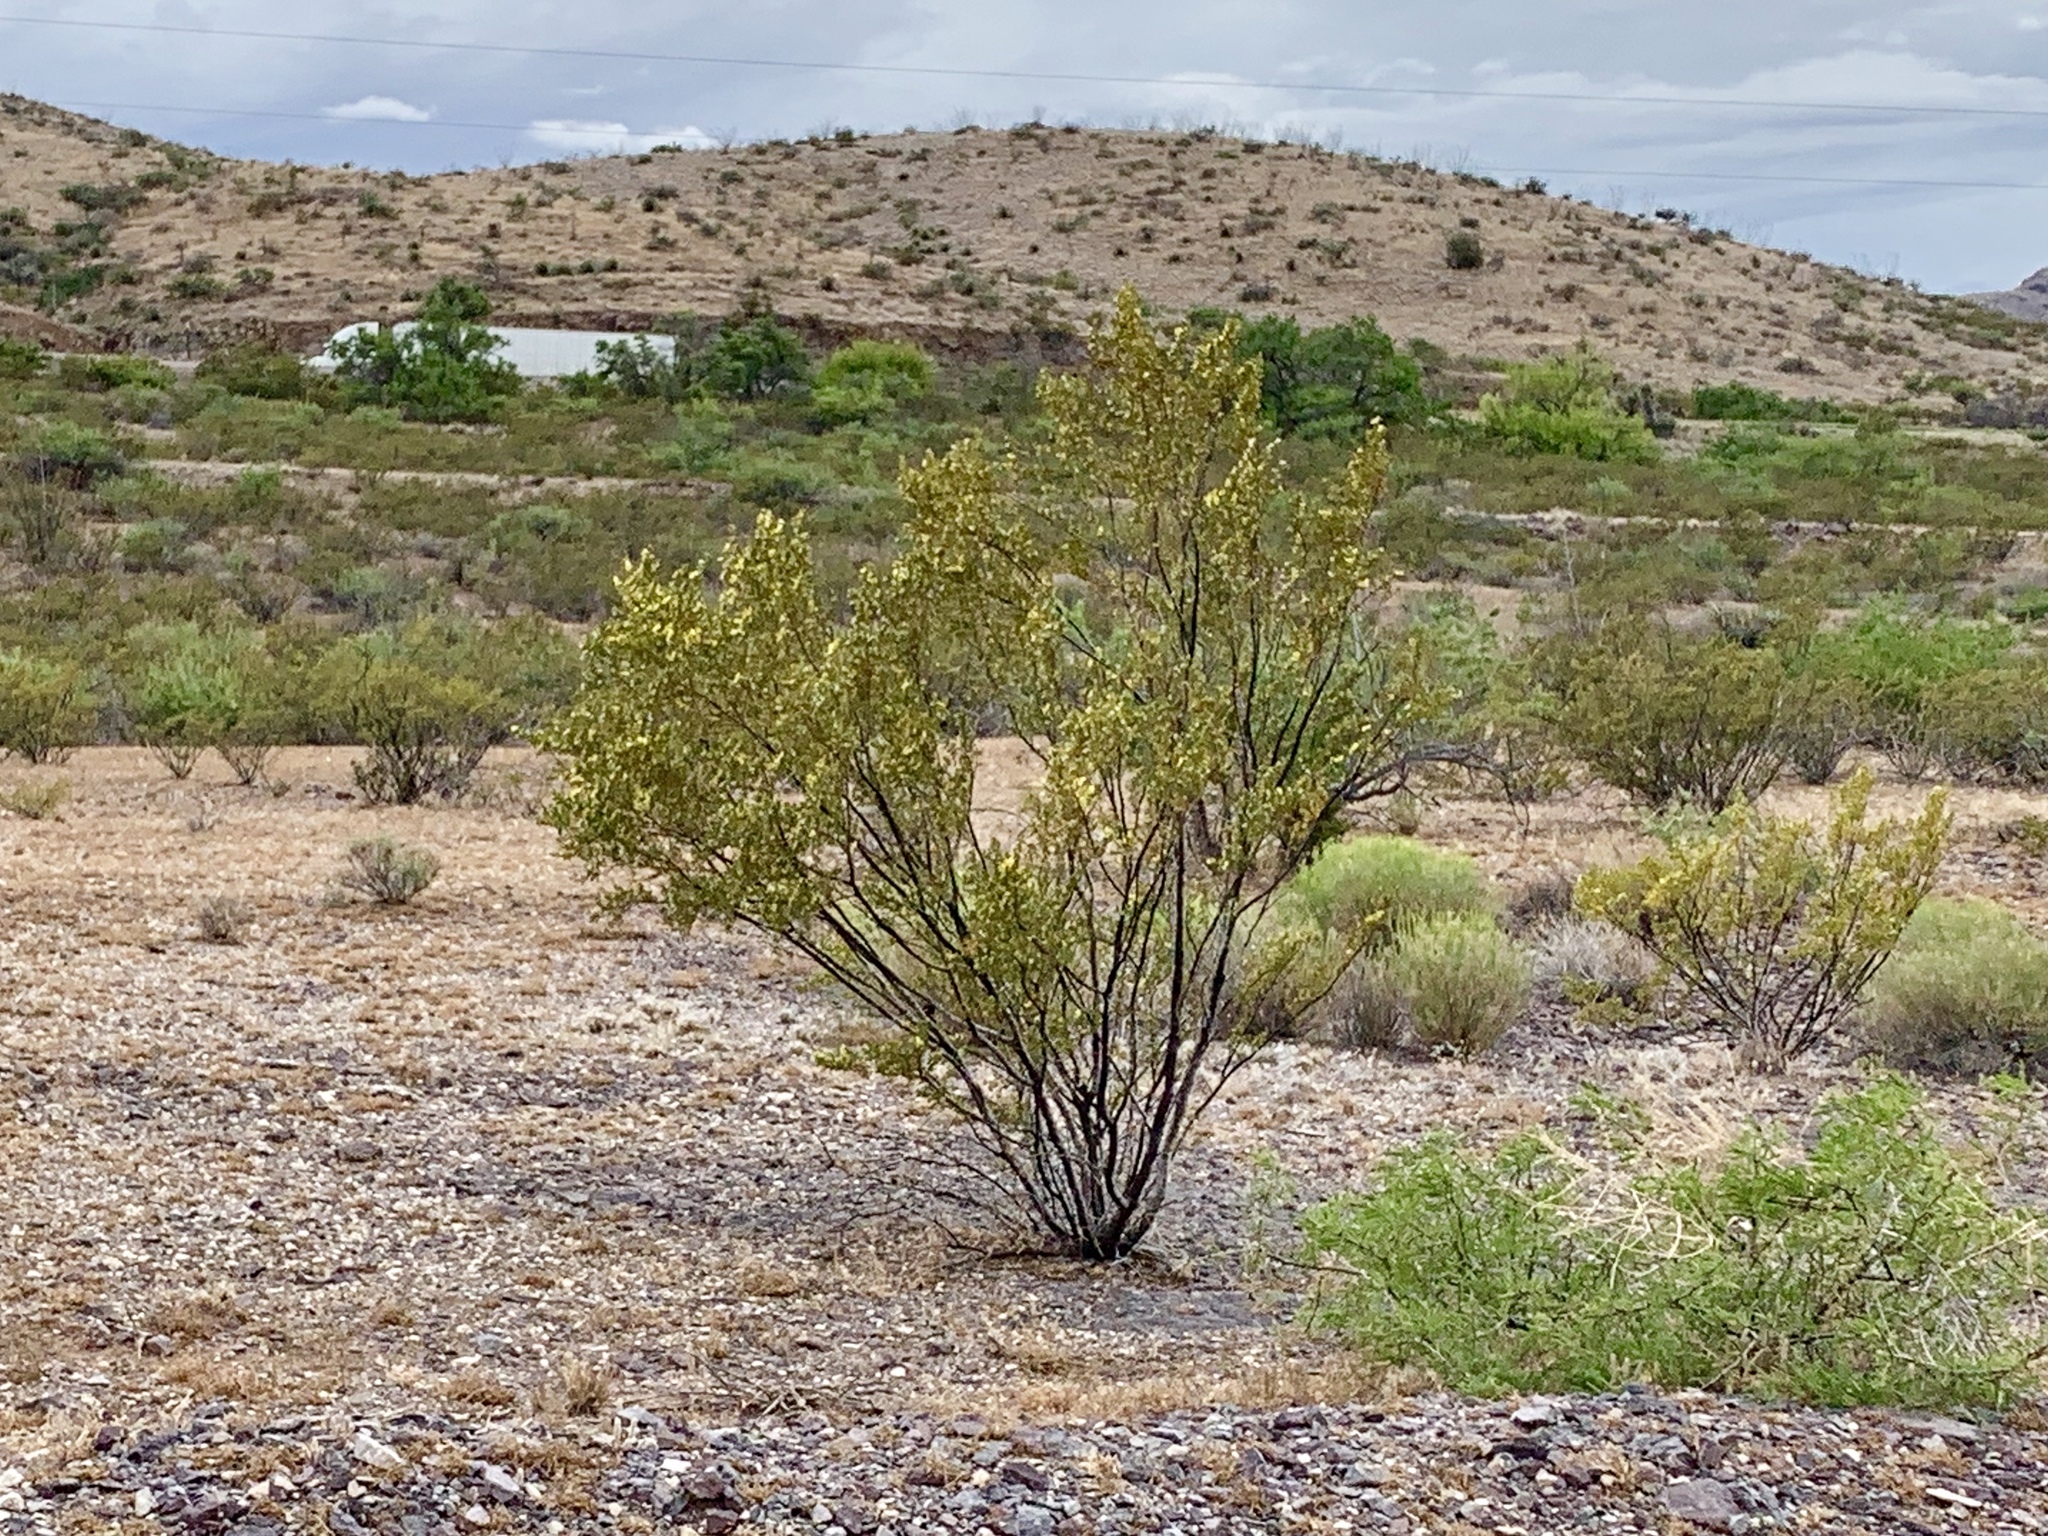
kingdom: Plantae
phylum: Tracheophyta
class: Magnoliopsida
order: Zygophyllales
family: Zygophyllaceae
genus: Larrea
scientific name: Larrea tridentata
